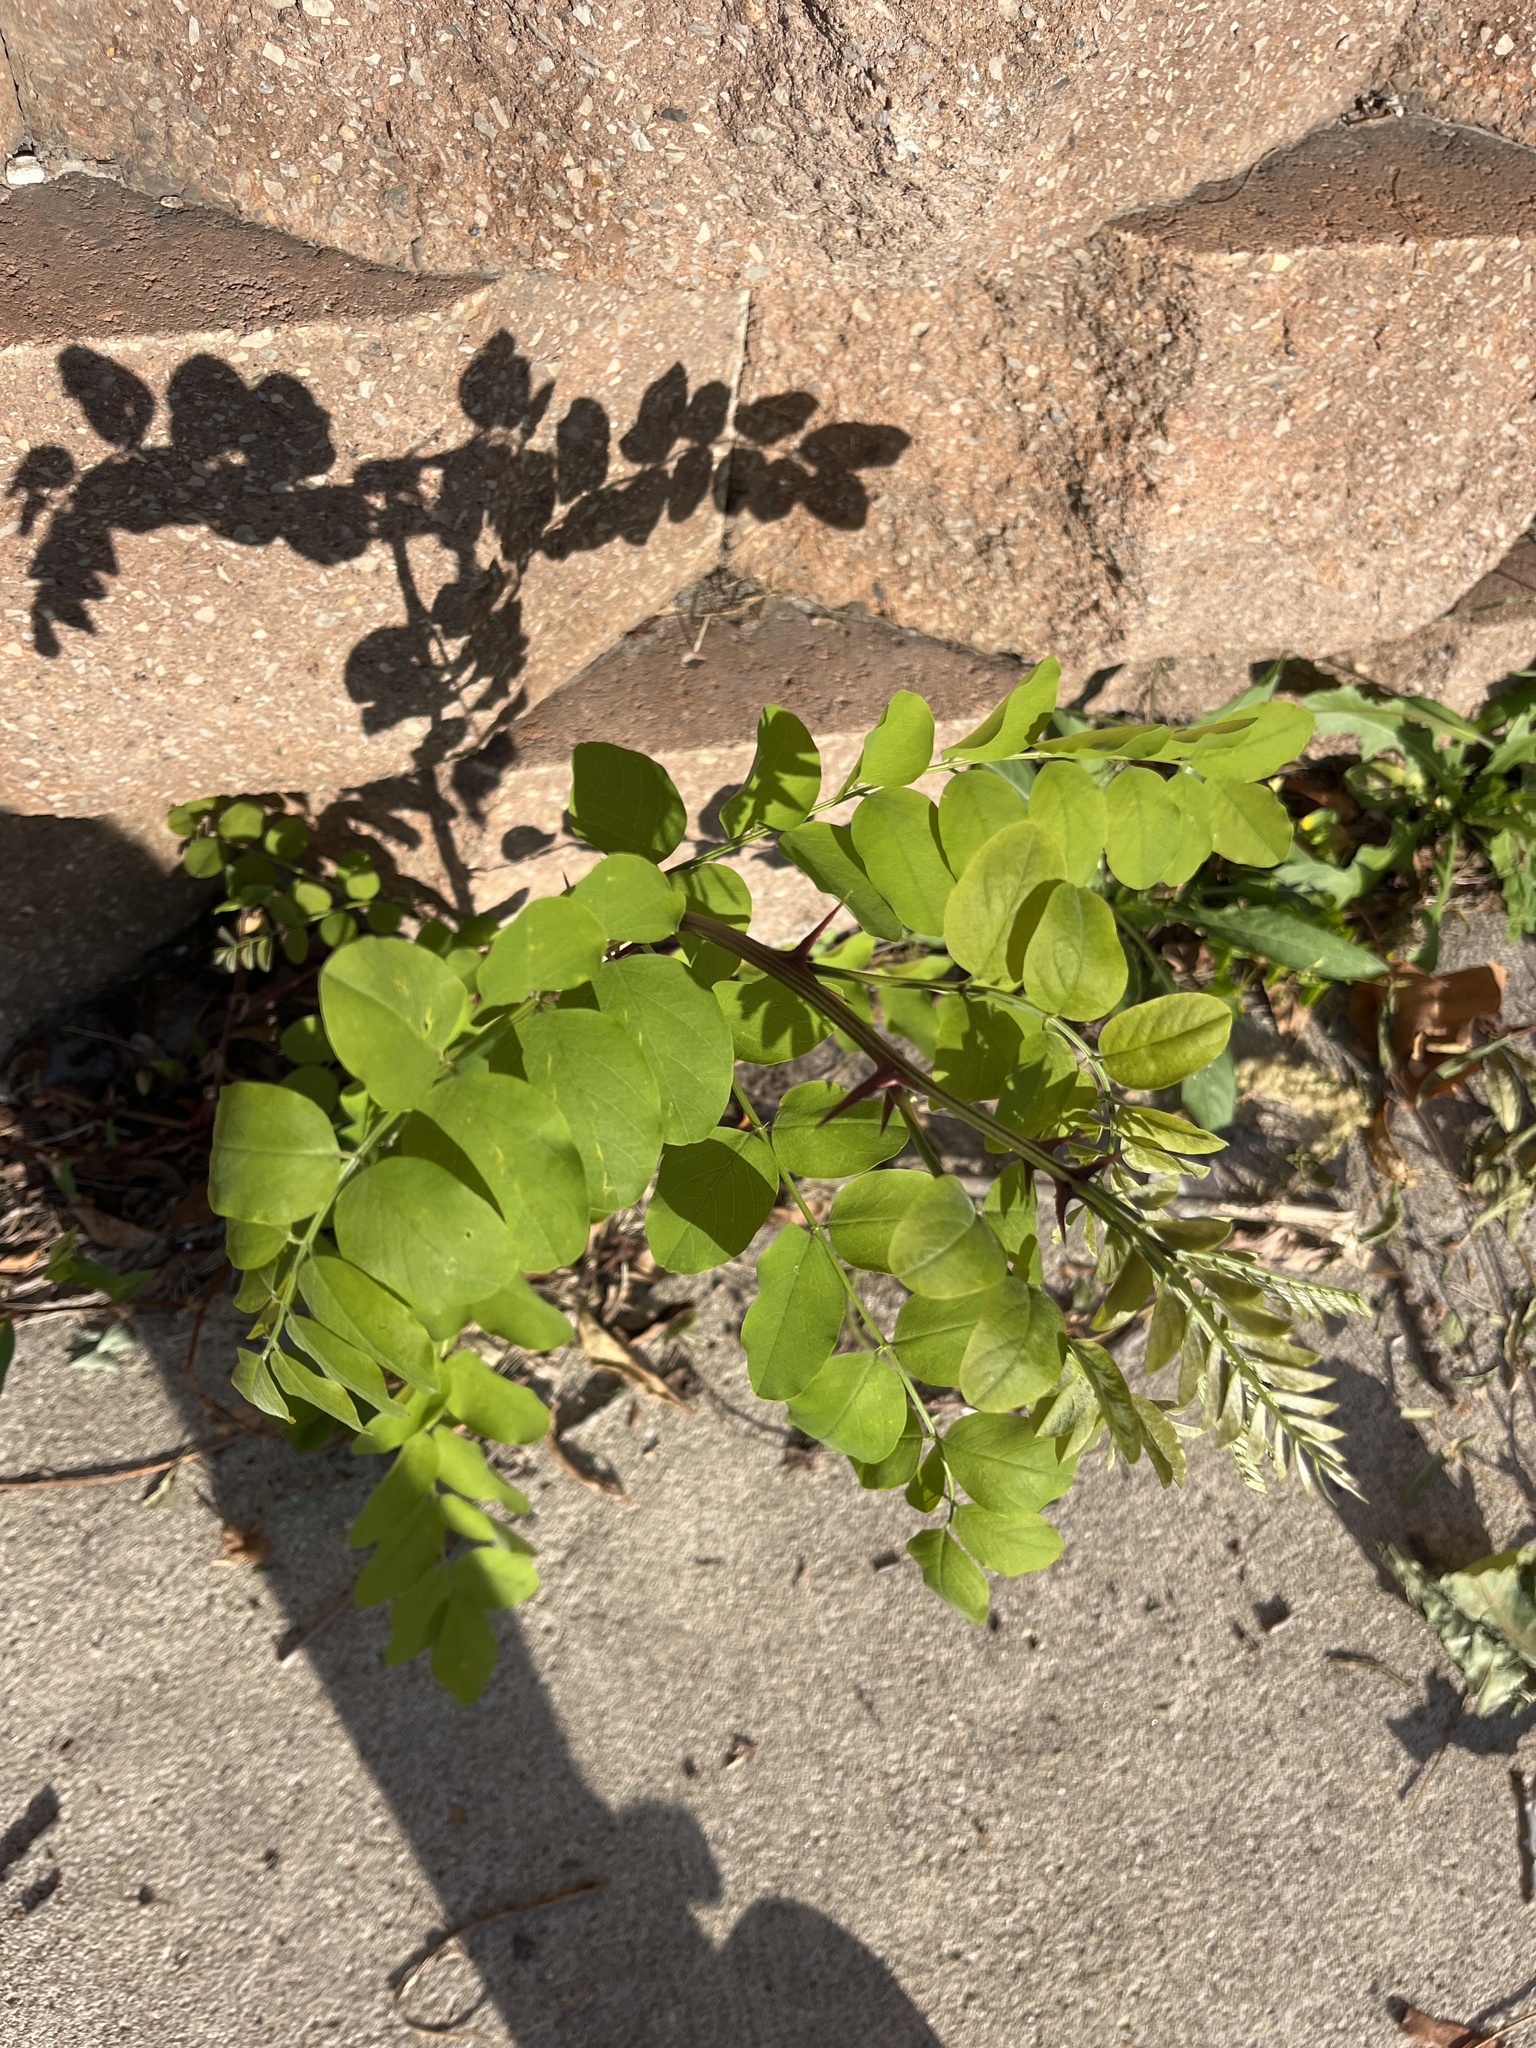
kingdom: Plantae
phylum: Tracheophyta
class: Magnoliopsida
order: Fabales
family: Fabaceae
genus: Robinia
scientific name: Robinia pseudoacacia
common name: Black locust
